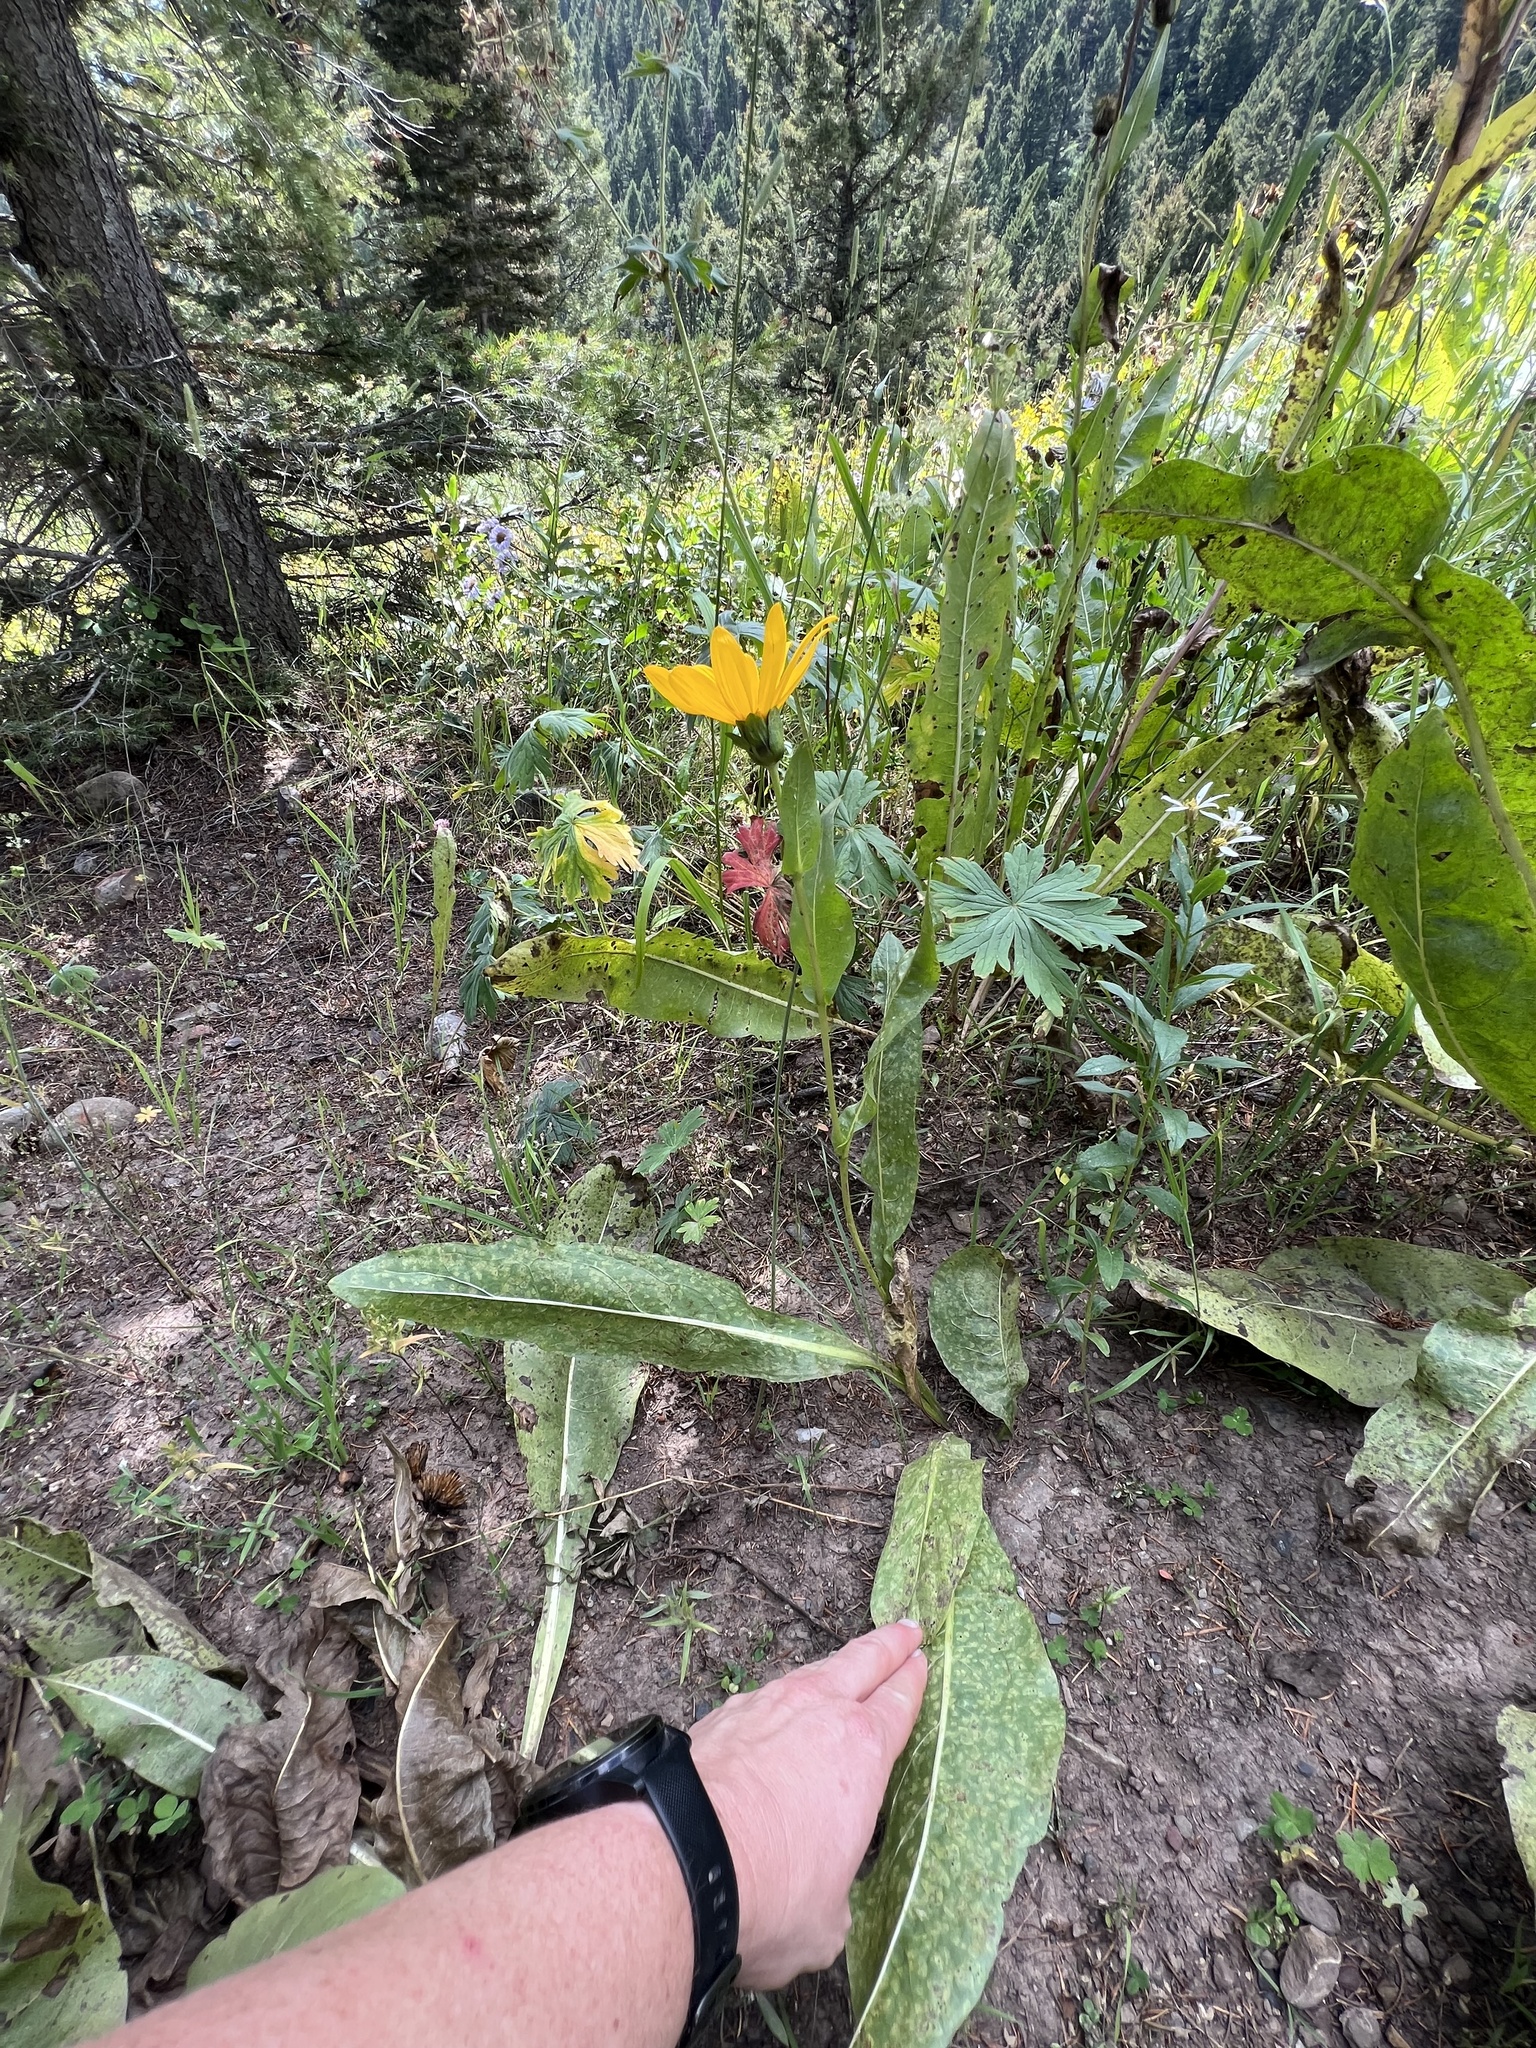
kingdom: Plantae
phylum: Tracheophyta
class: Magnoliopsida
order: Asterales
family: Asteraceae
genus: Wyethia
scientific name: Wyethia amplexicaulis
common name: Northern mule's-ears
